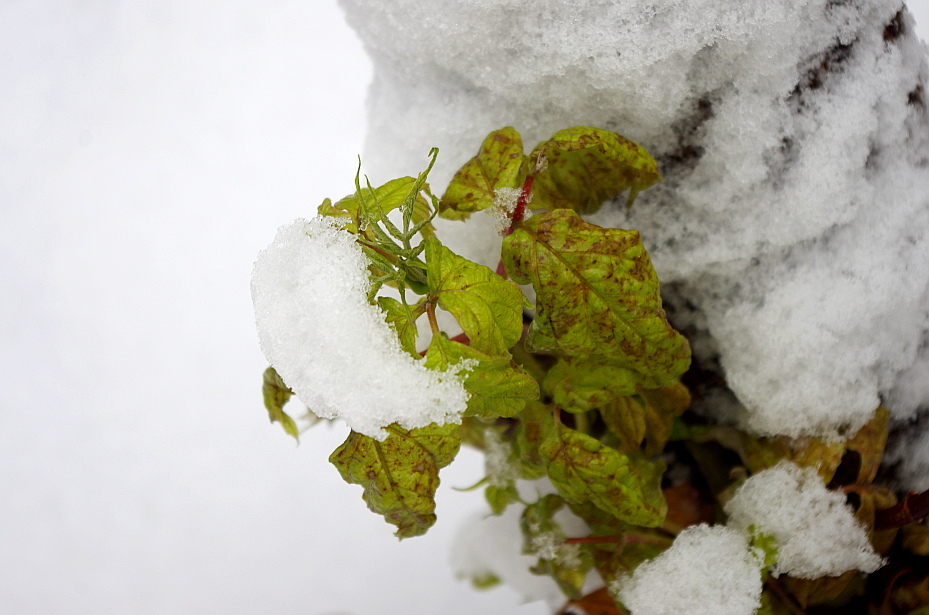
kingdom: Plantae
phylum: Tracheophyta
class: Magnoliopsida
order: Sapindales
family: Sapindaceae
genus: Acer
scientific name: Acer negundo
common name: Ashleaf maple
